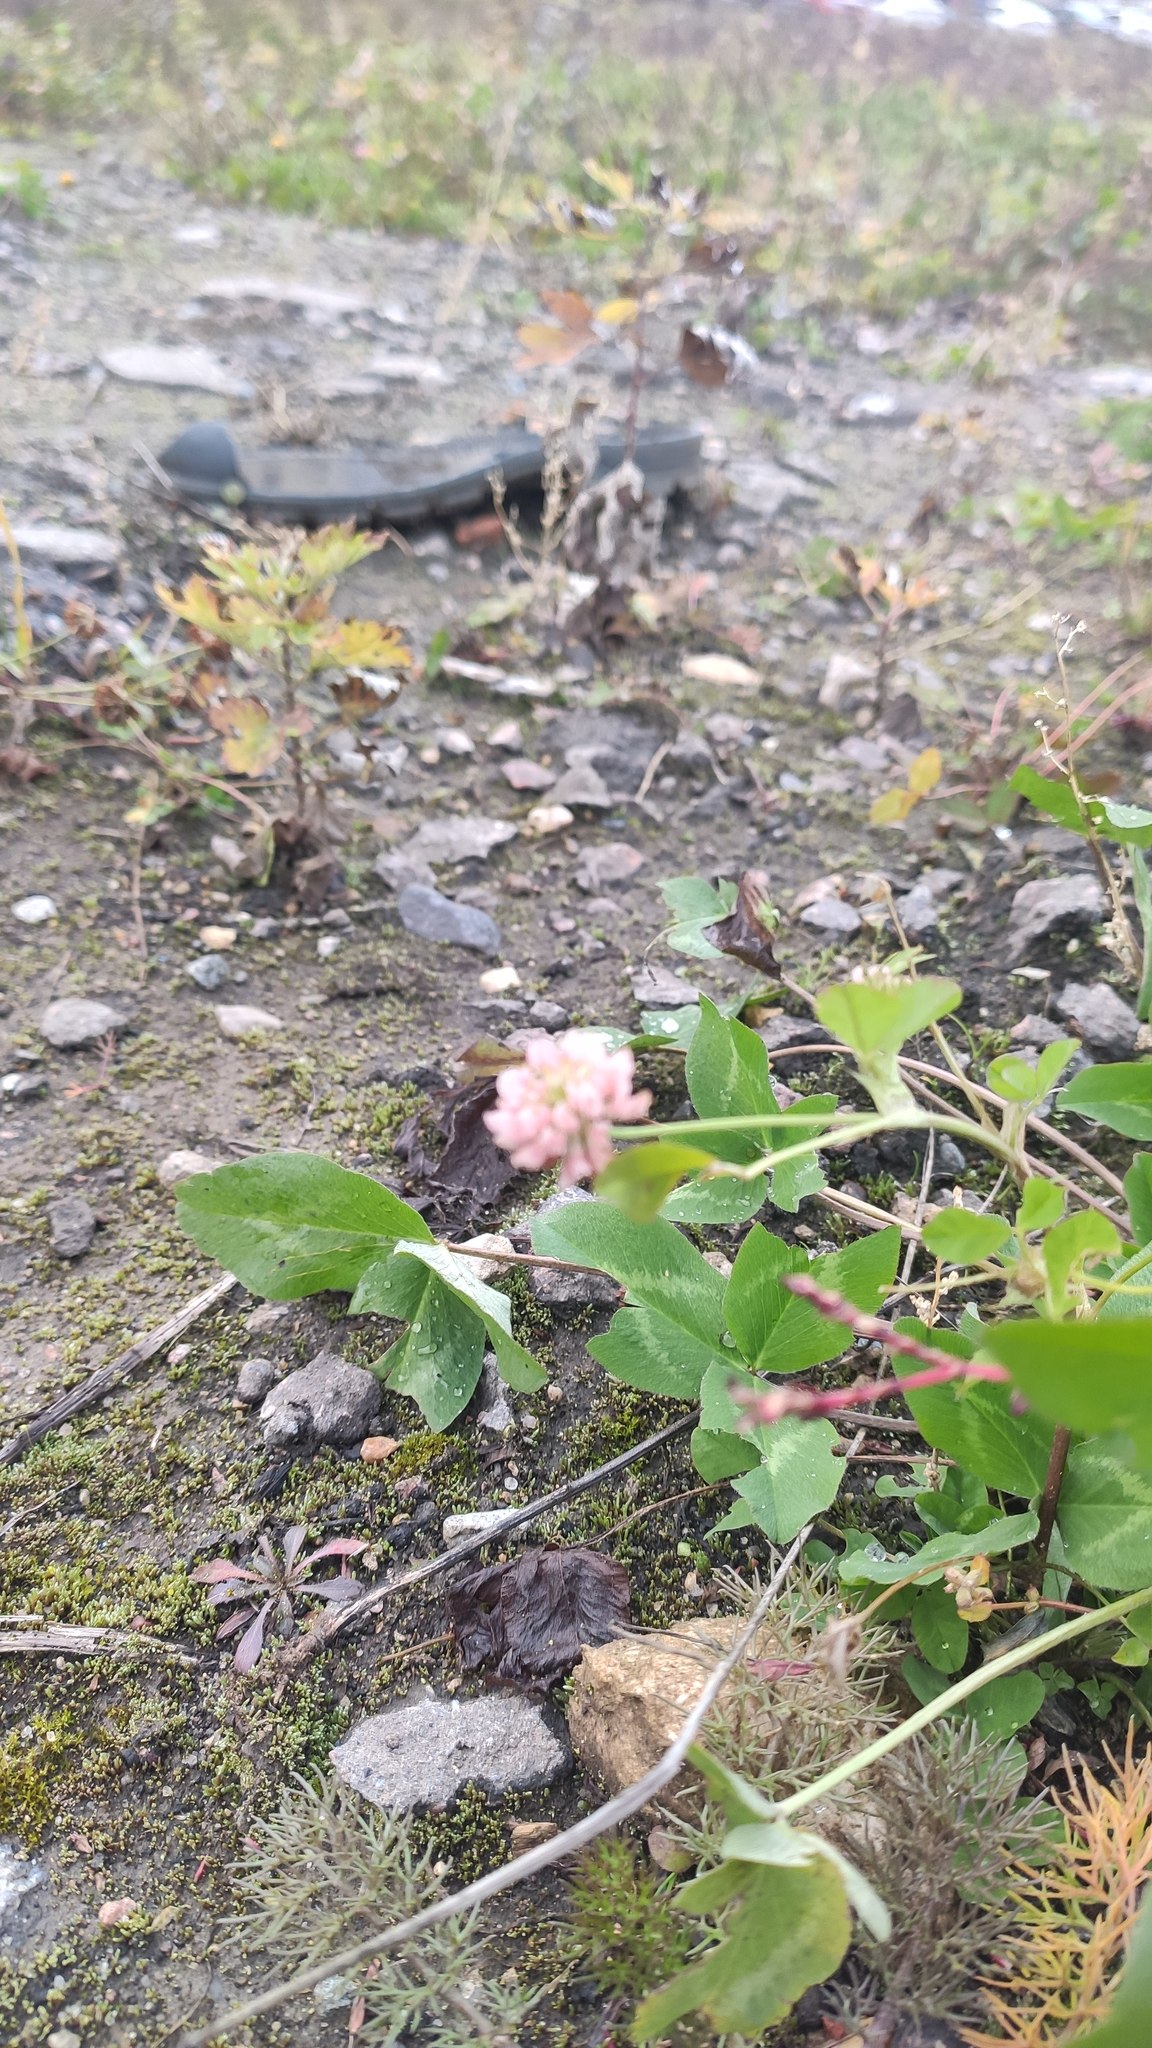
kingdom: Plantae
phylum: Tracheophyta
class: Magnoliopsida
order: Fabales
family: Fabaceae
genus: Trifolium
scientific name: Trifolium hybridum
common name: Alsike clover
